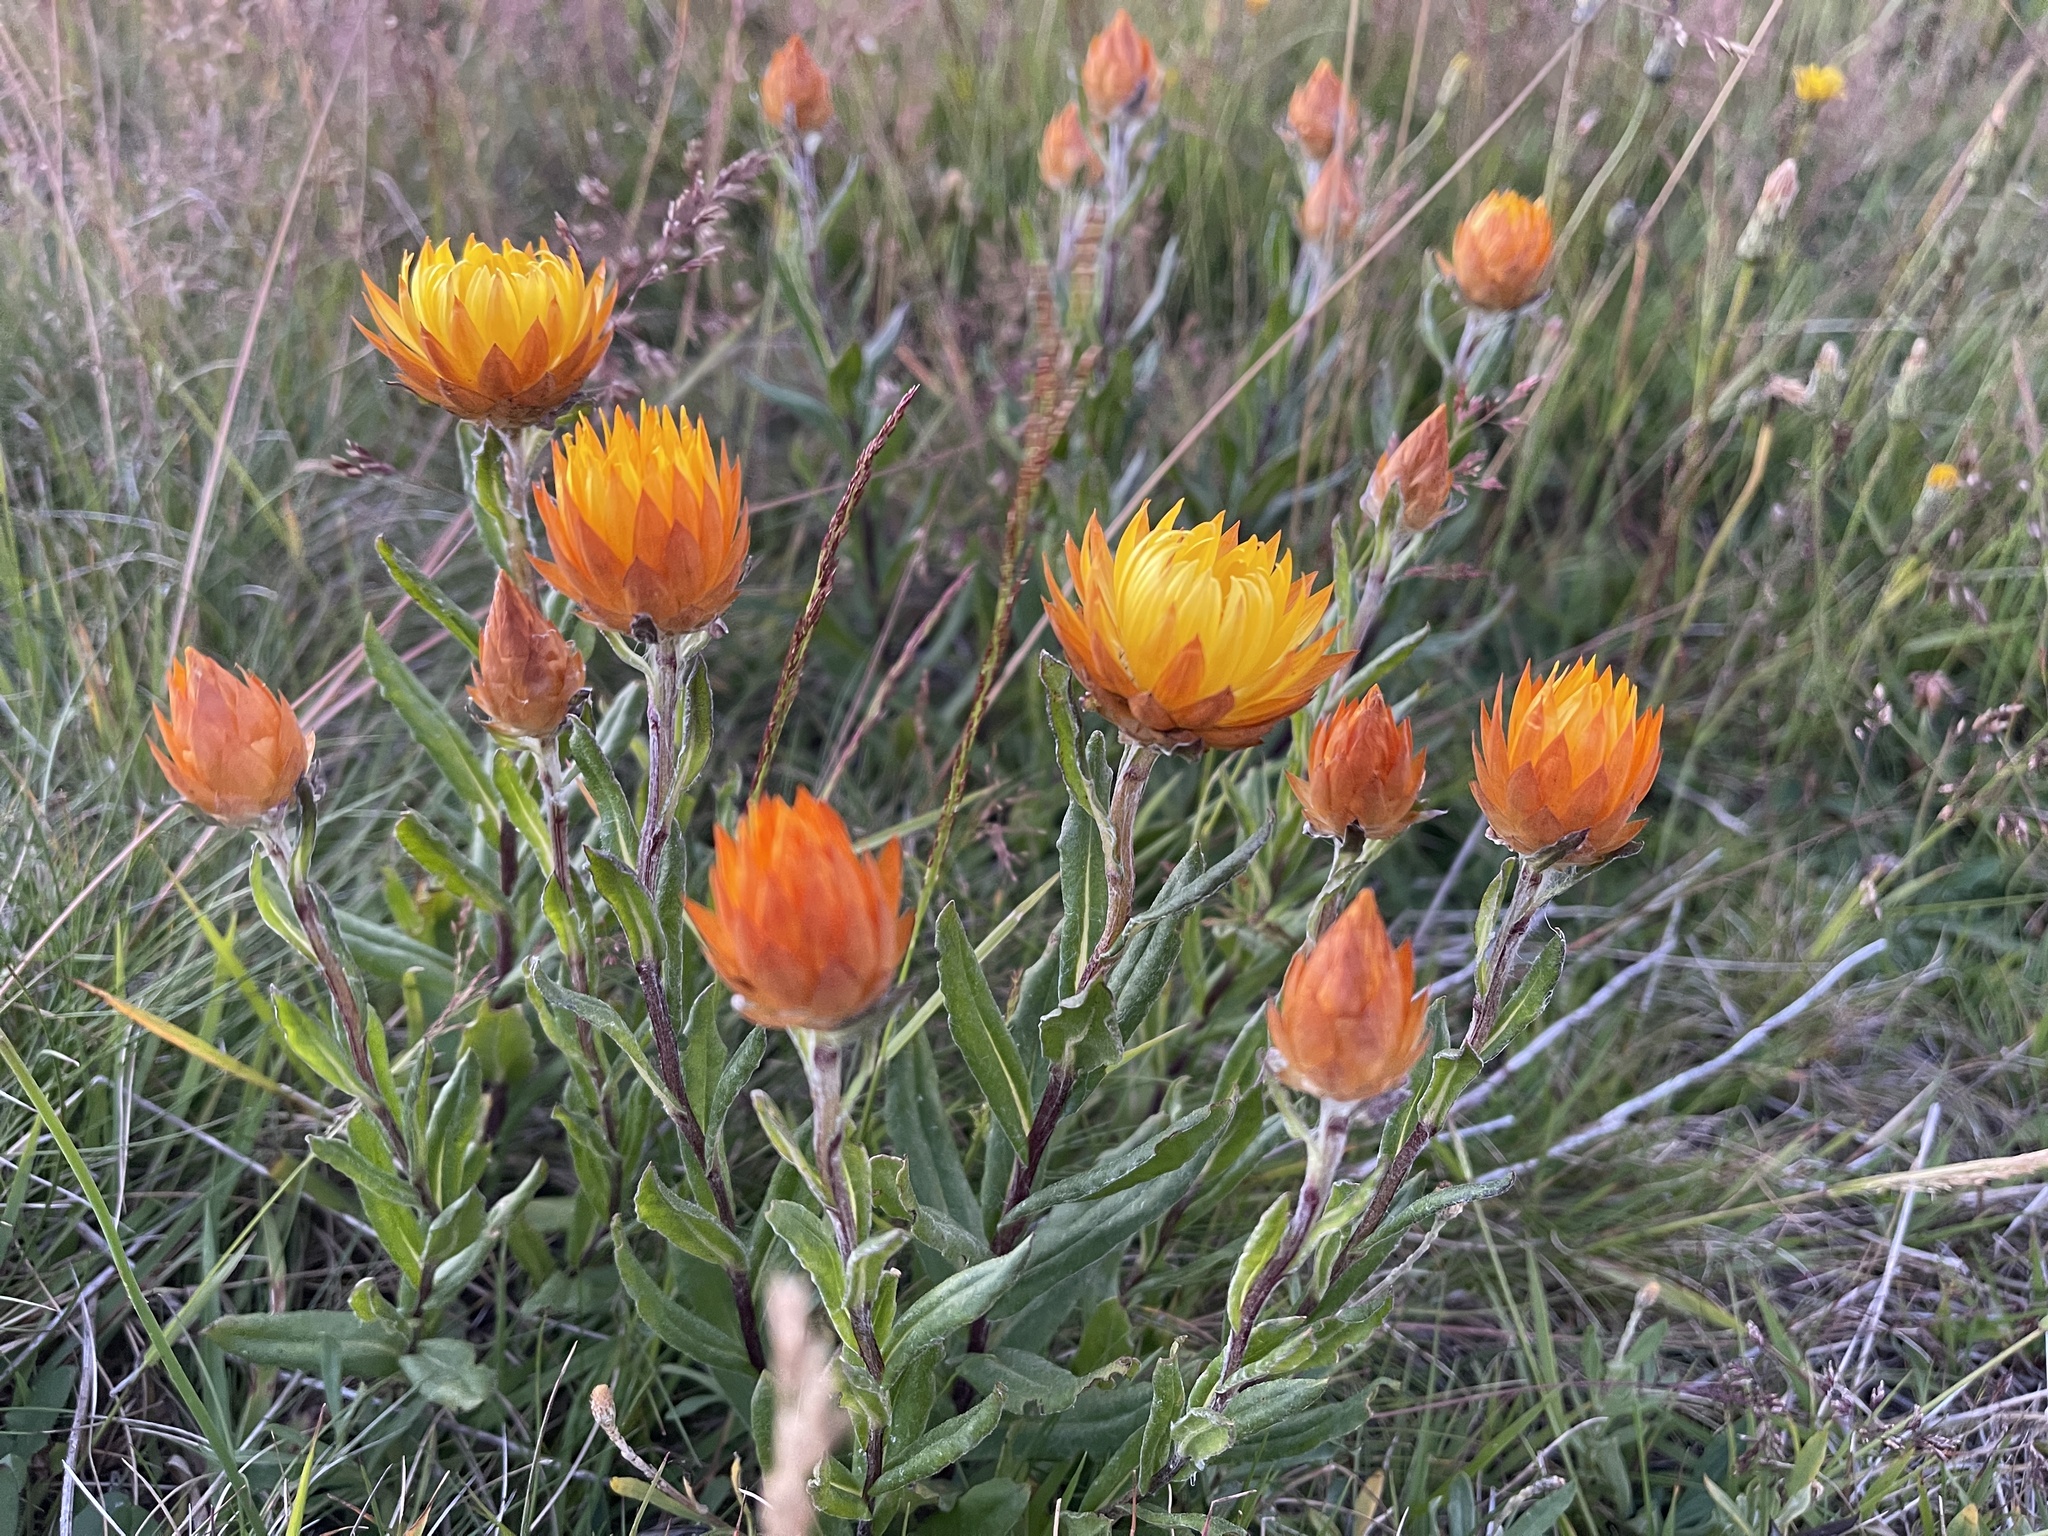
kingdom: Plantae
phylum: Tracheophyta
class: Magnoliopsida
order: Asterales
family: Asteraceae
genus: Xerochrysum
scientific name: Xerochrysum subundulatum
